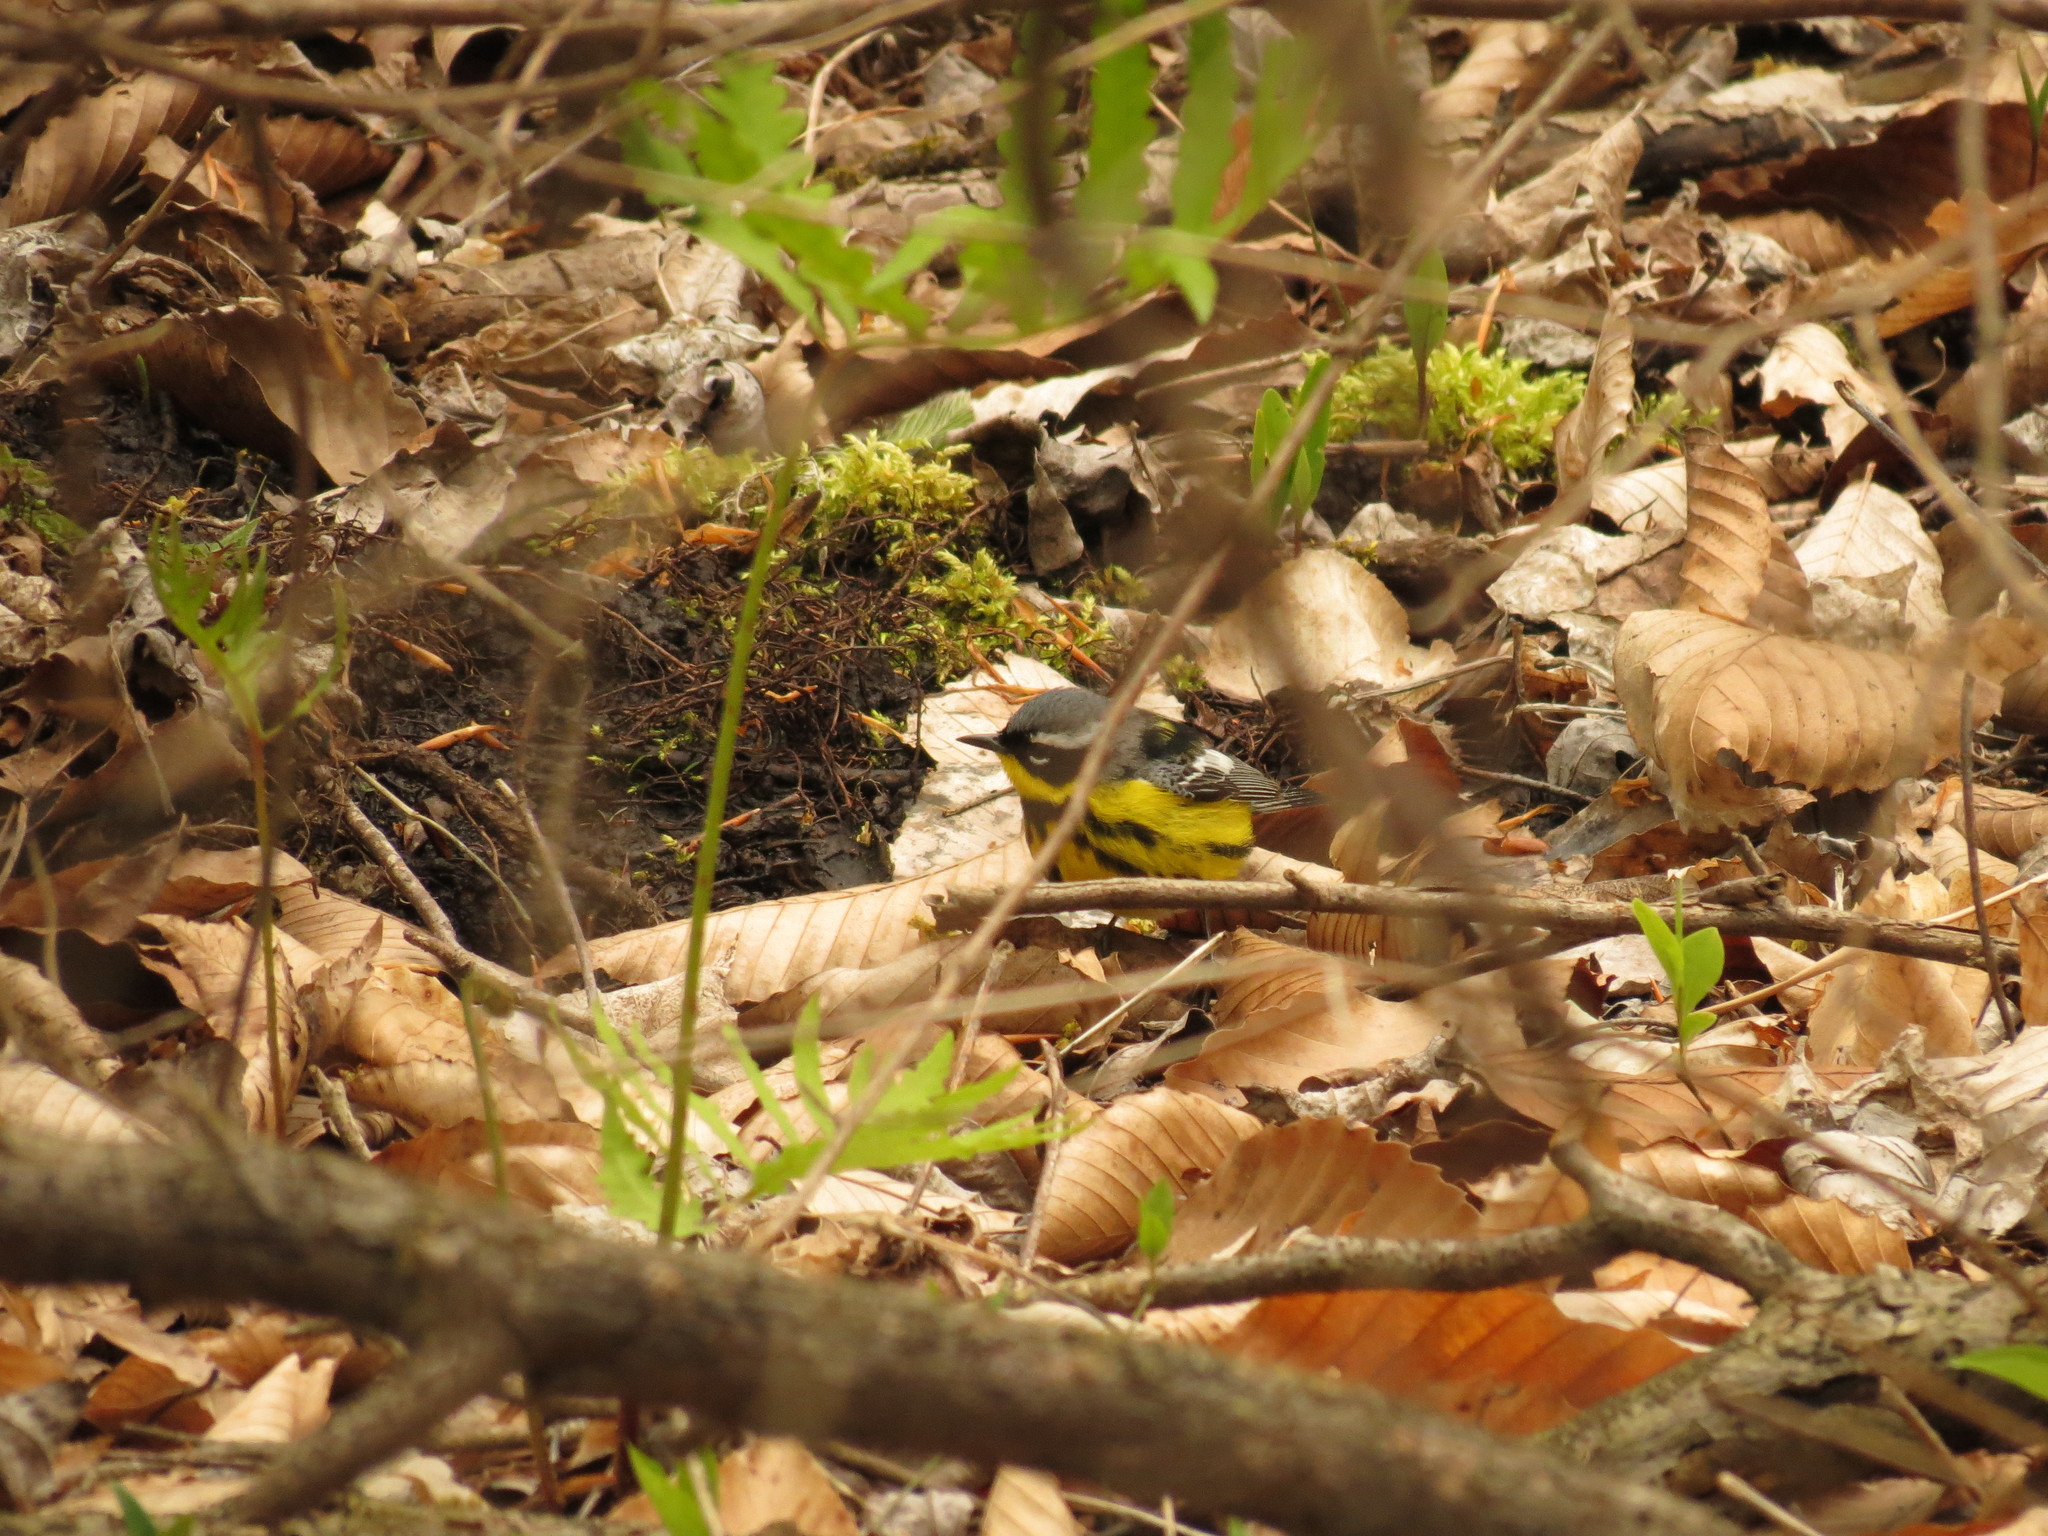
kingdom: Animalia
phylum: Chordata
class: Aves
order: Passeriformes
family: Parulidae
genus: Setophaga
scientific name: Setophaga magnolia
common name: Magnolia warbler
